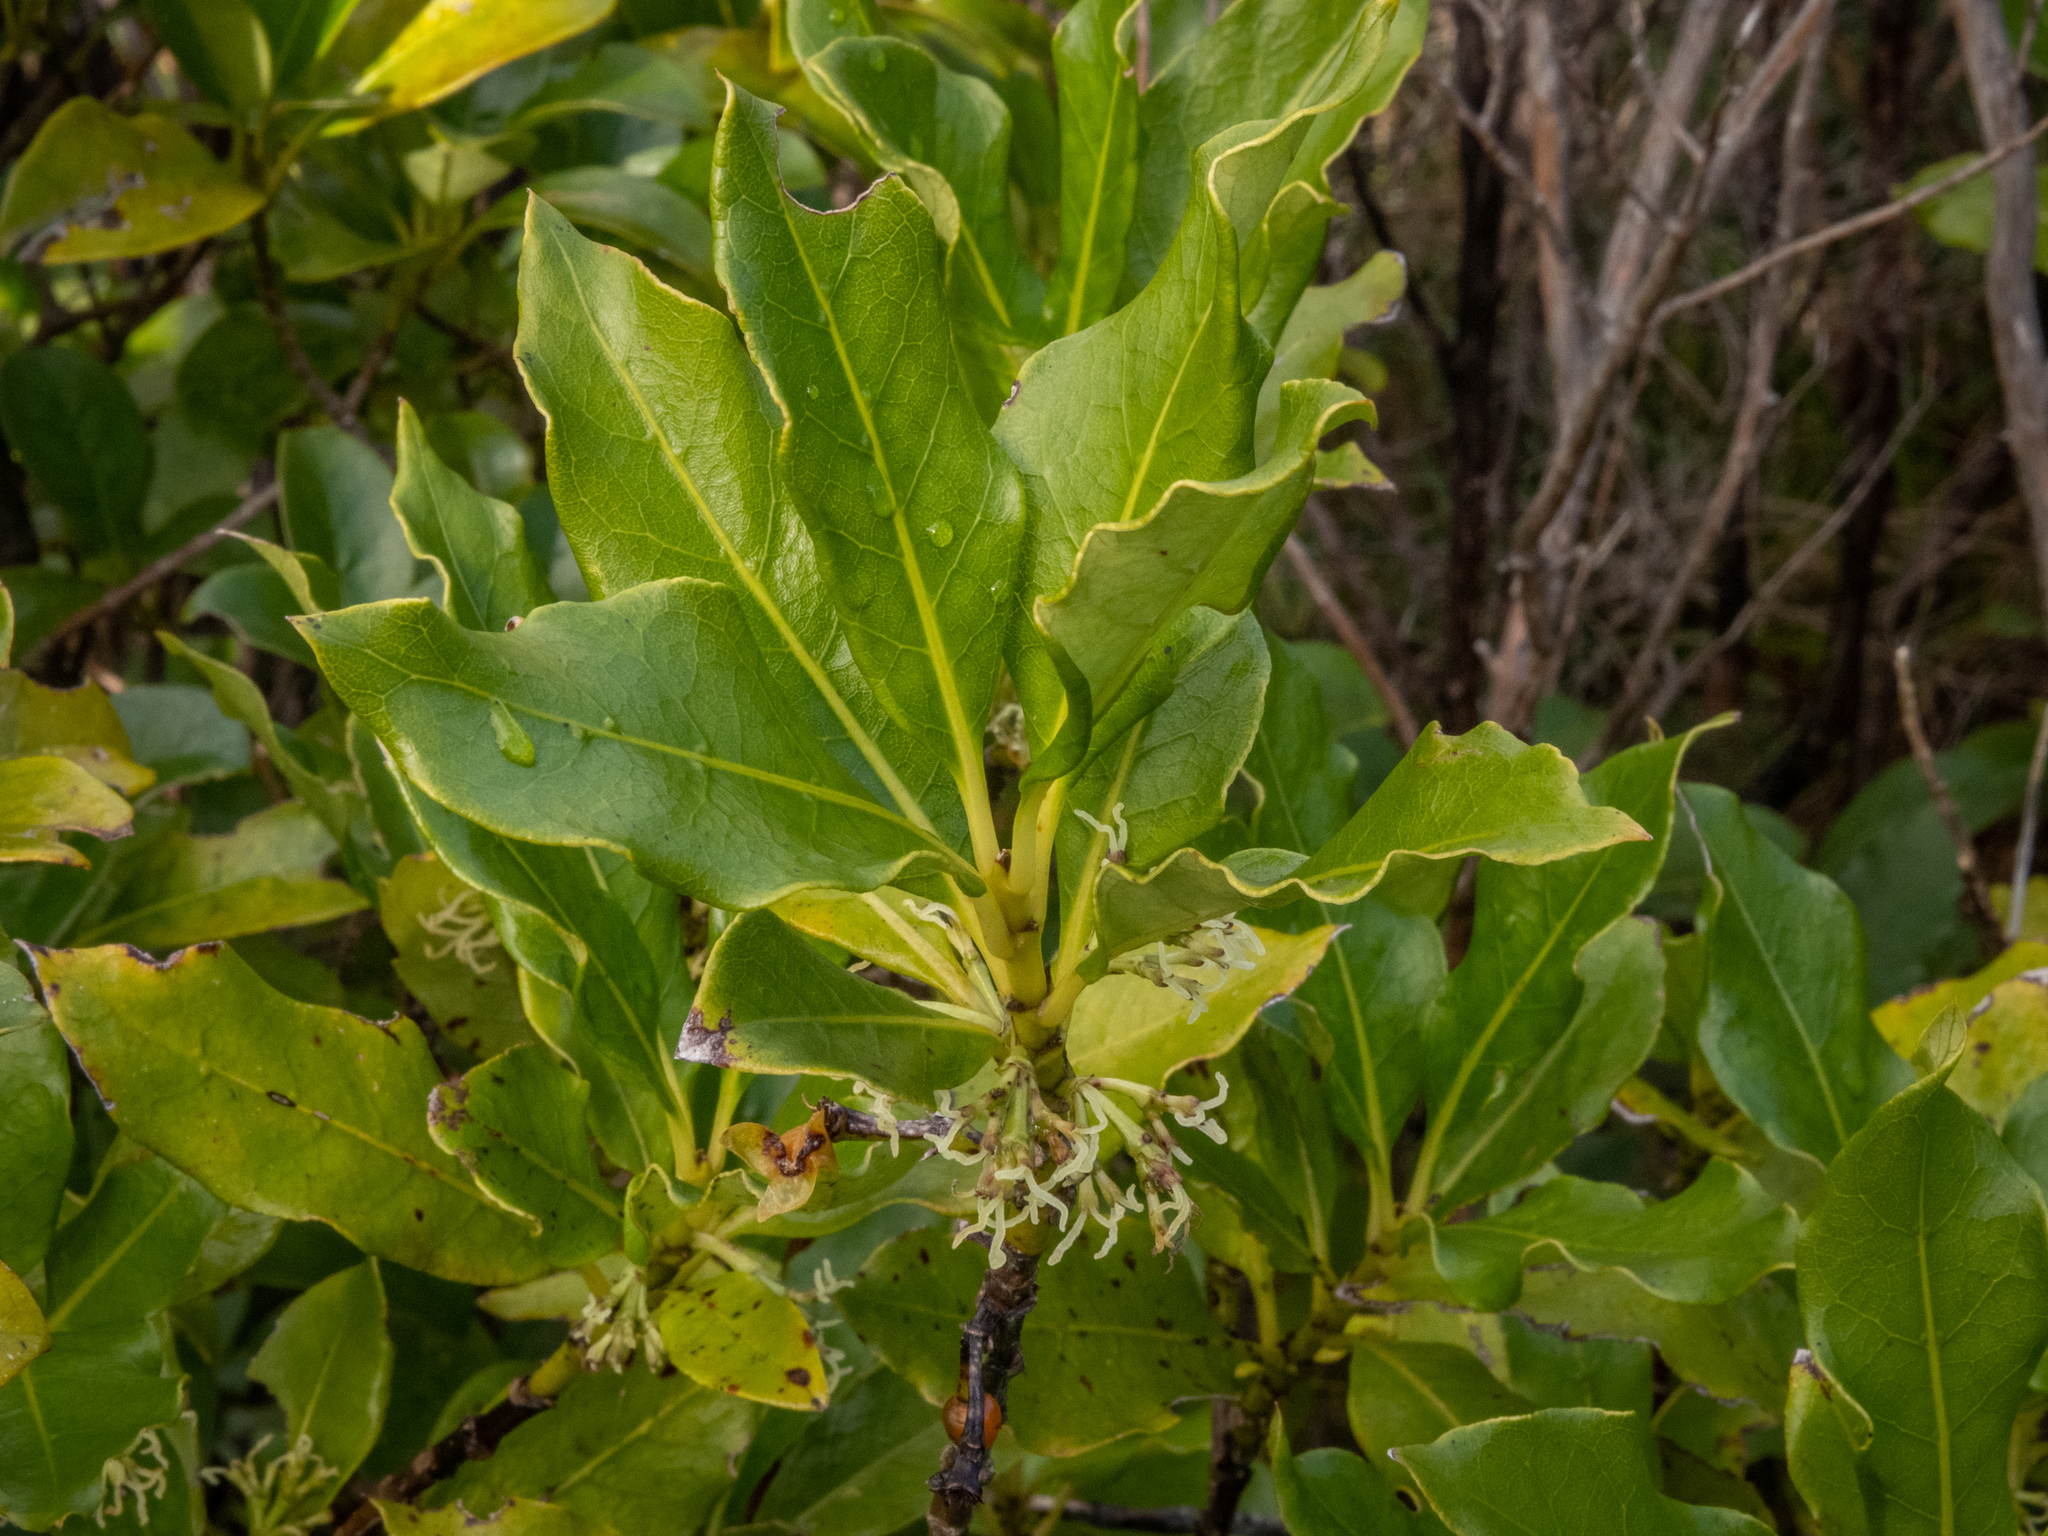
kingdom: Plantae
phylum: Tracheophyta
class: Magnoliopsida
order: Gentianales
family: Rubiaceae
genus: Coprosma
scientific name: Coprosma autumnalis
